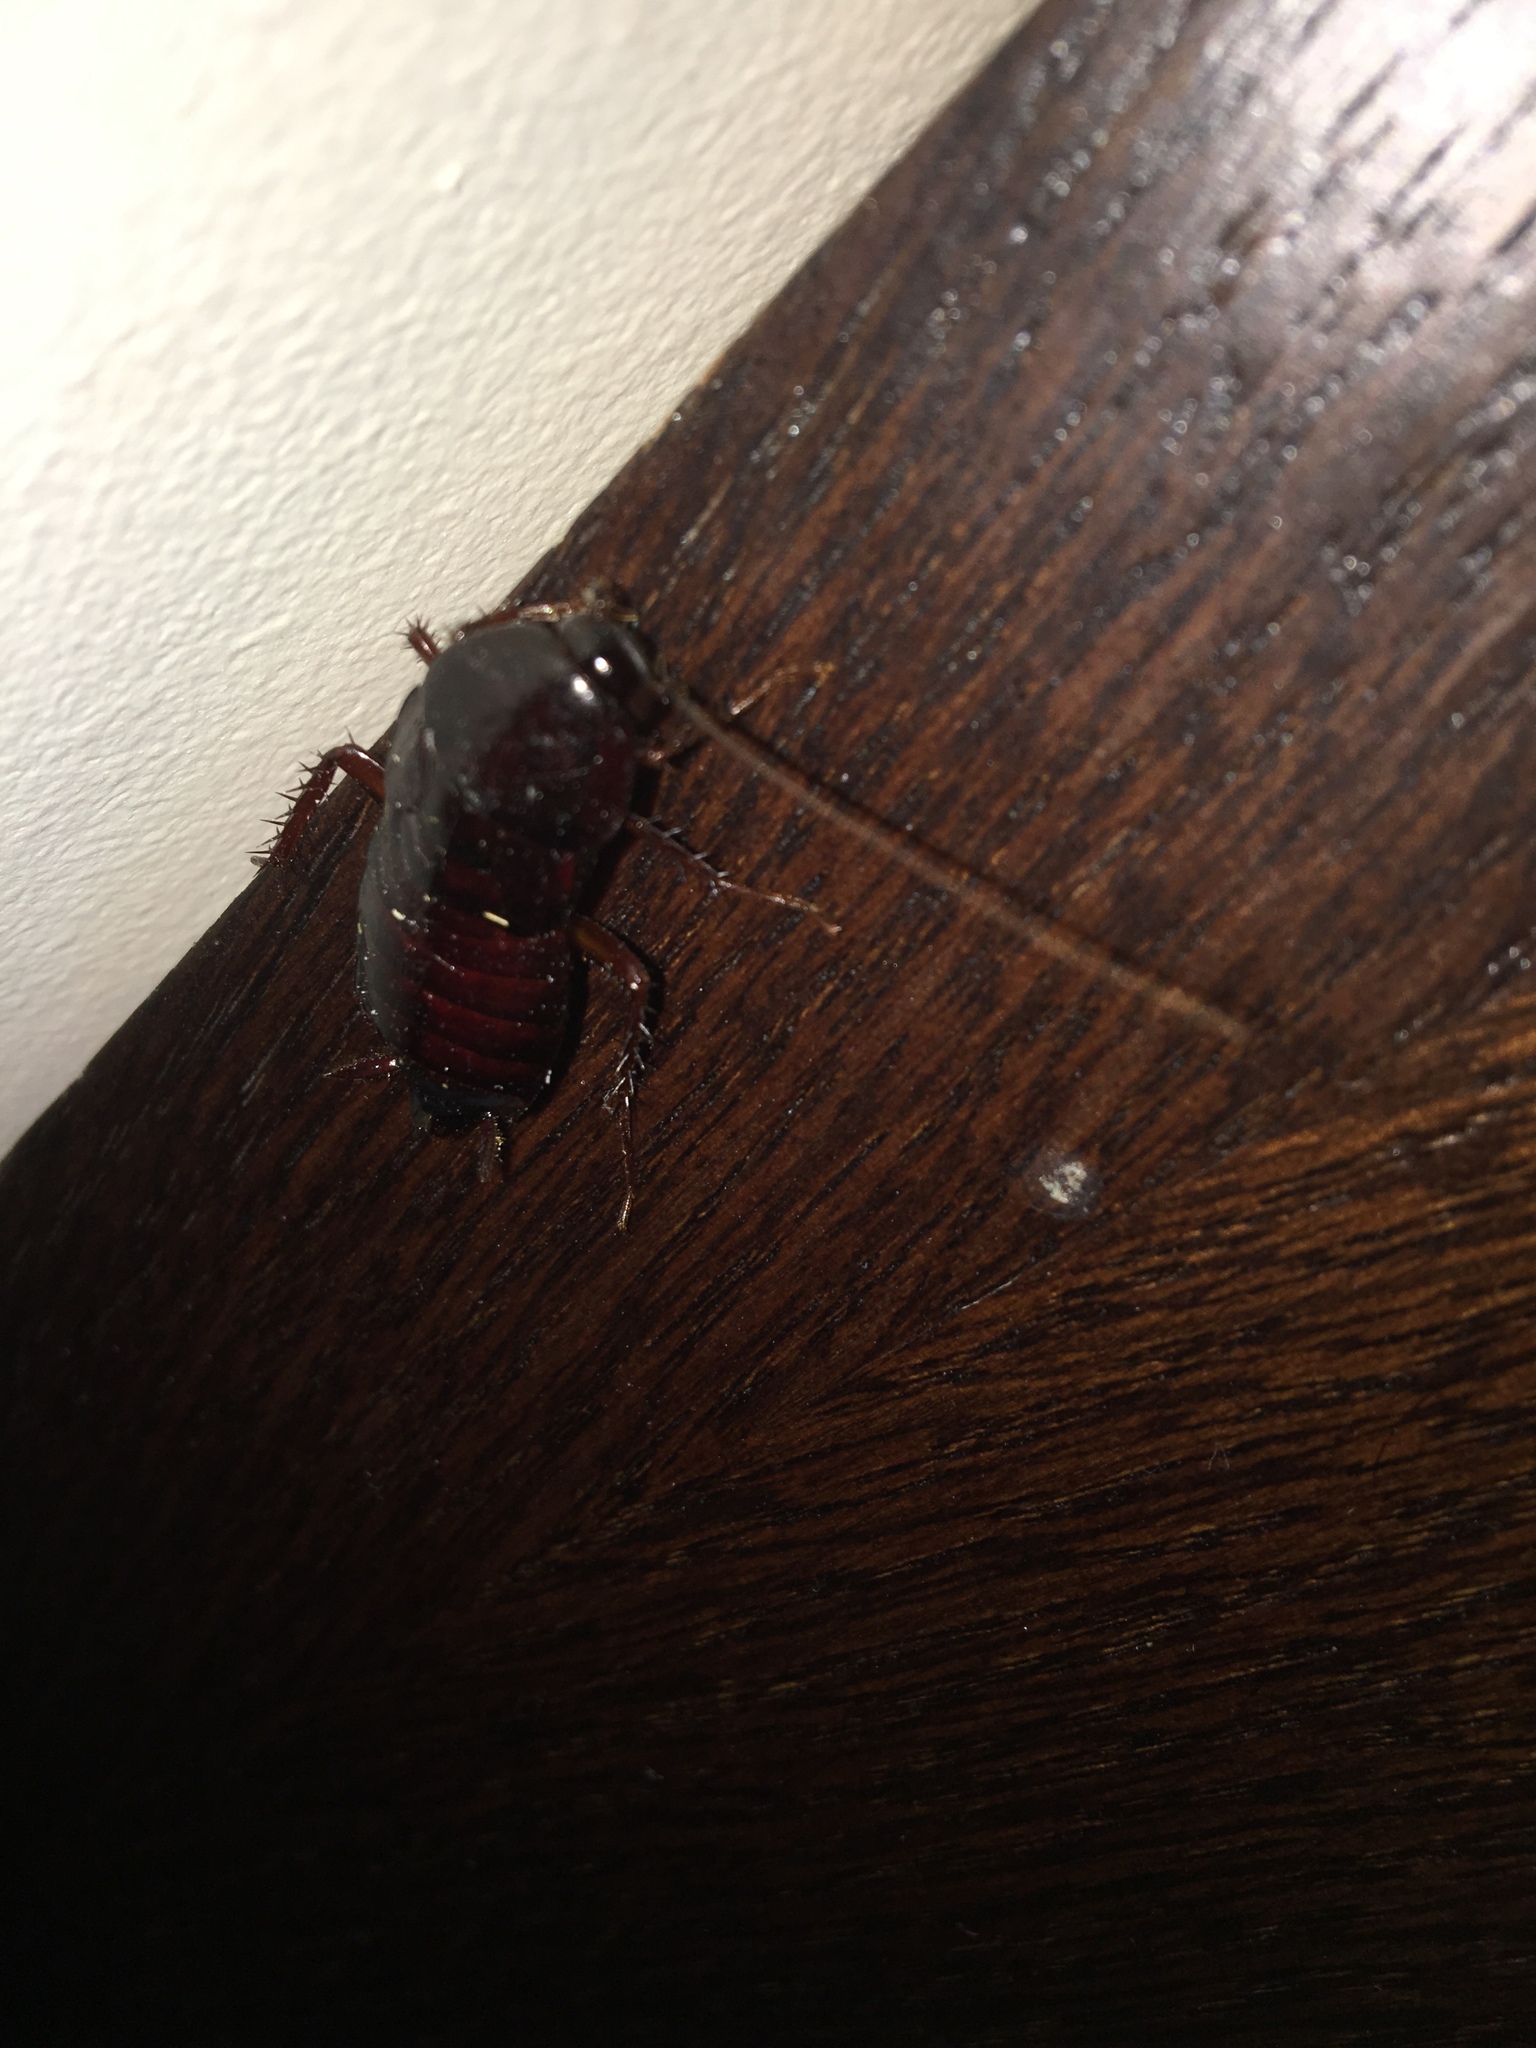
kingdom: Animalia
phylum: Arthropoda
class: Insecta
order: Blattodea
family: Blattidae
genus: Blatta
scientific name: Blatta orientalis
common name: Oriental cockroach
